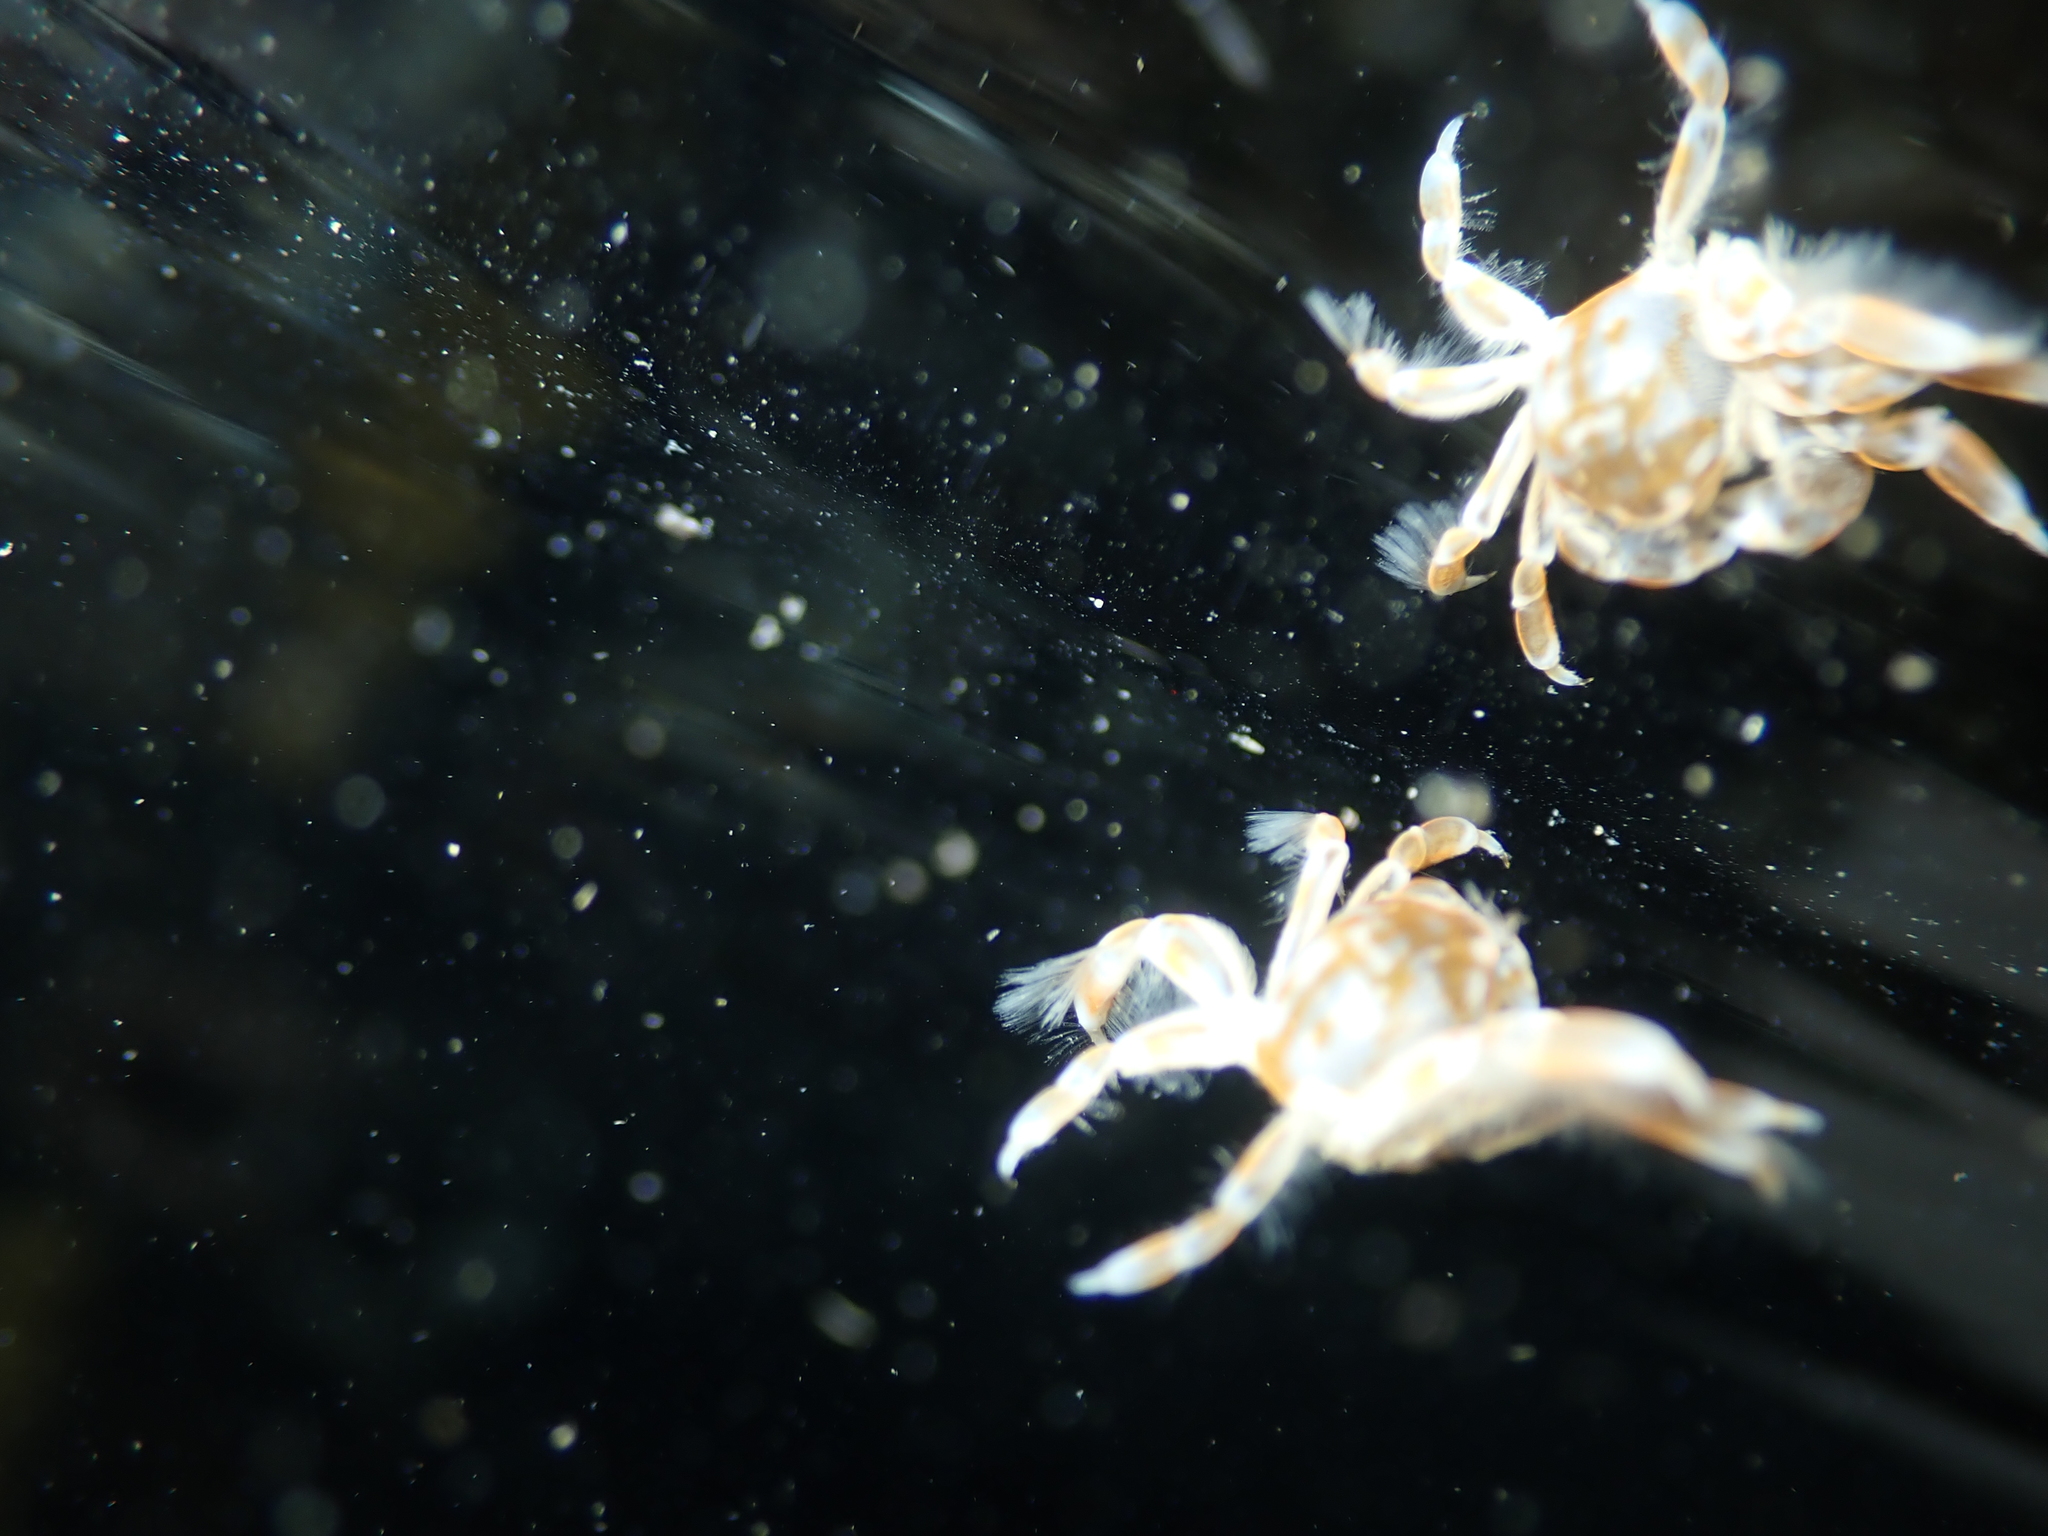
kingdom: Animalia
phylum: Arthropoda
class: Malacostraca
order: Decapoda
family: Pinnotheridae
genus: Nepinnotheres
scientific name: Nepinnotheres novaezelandiae
